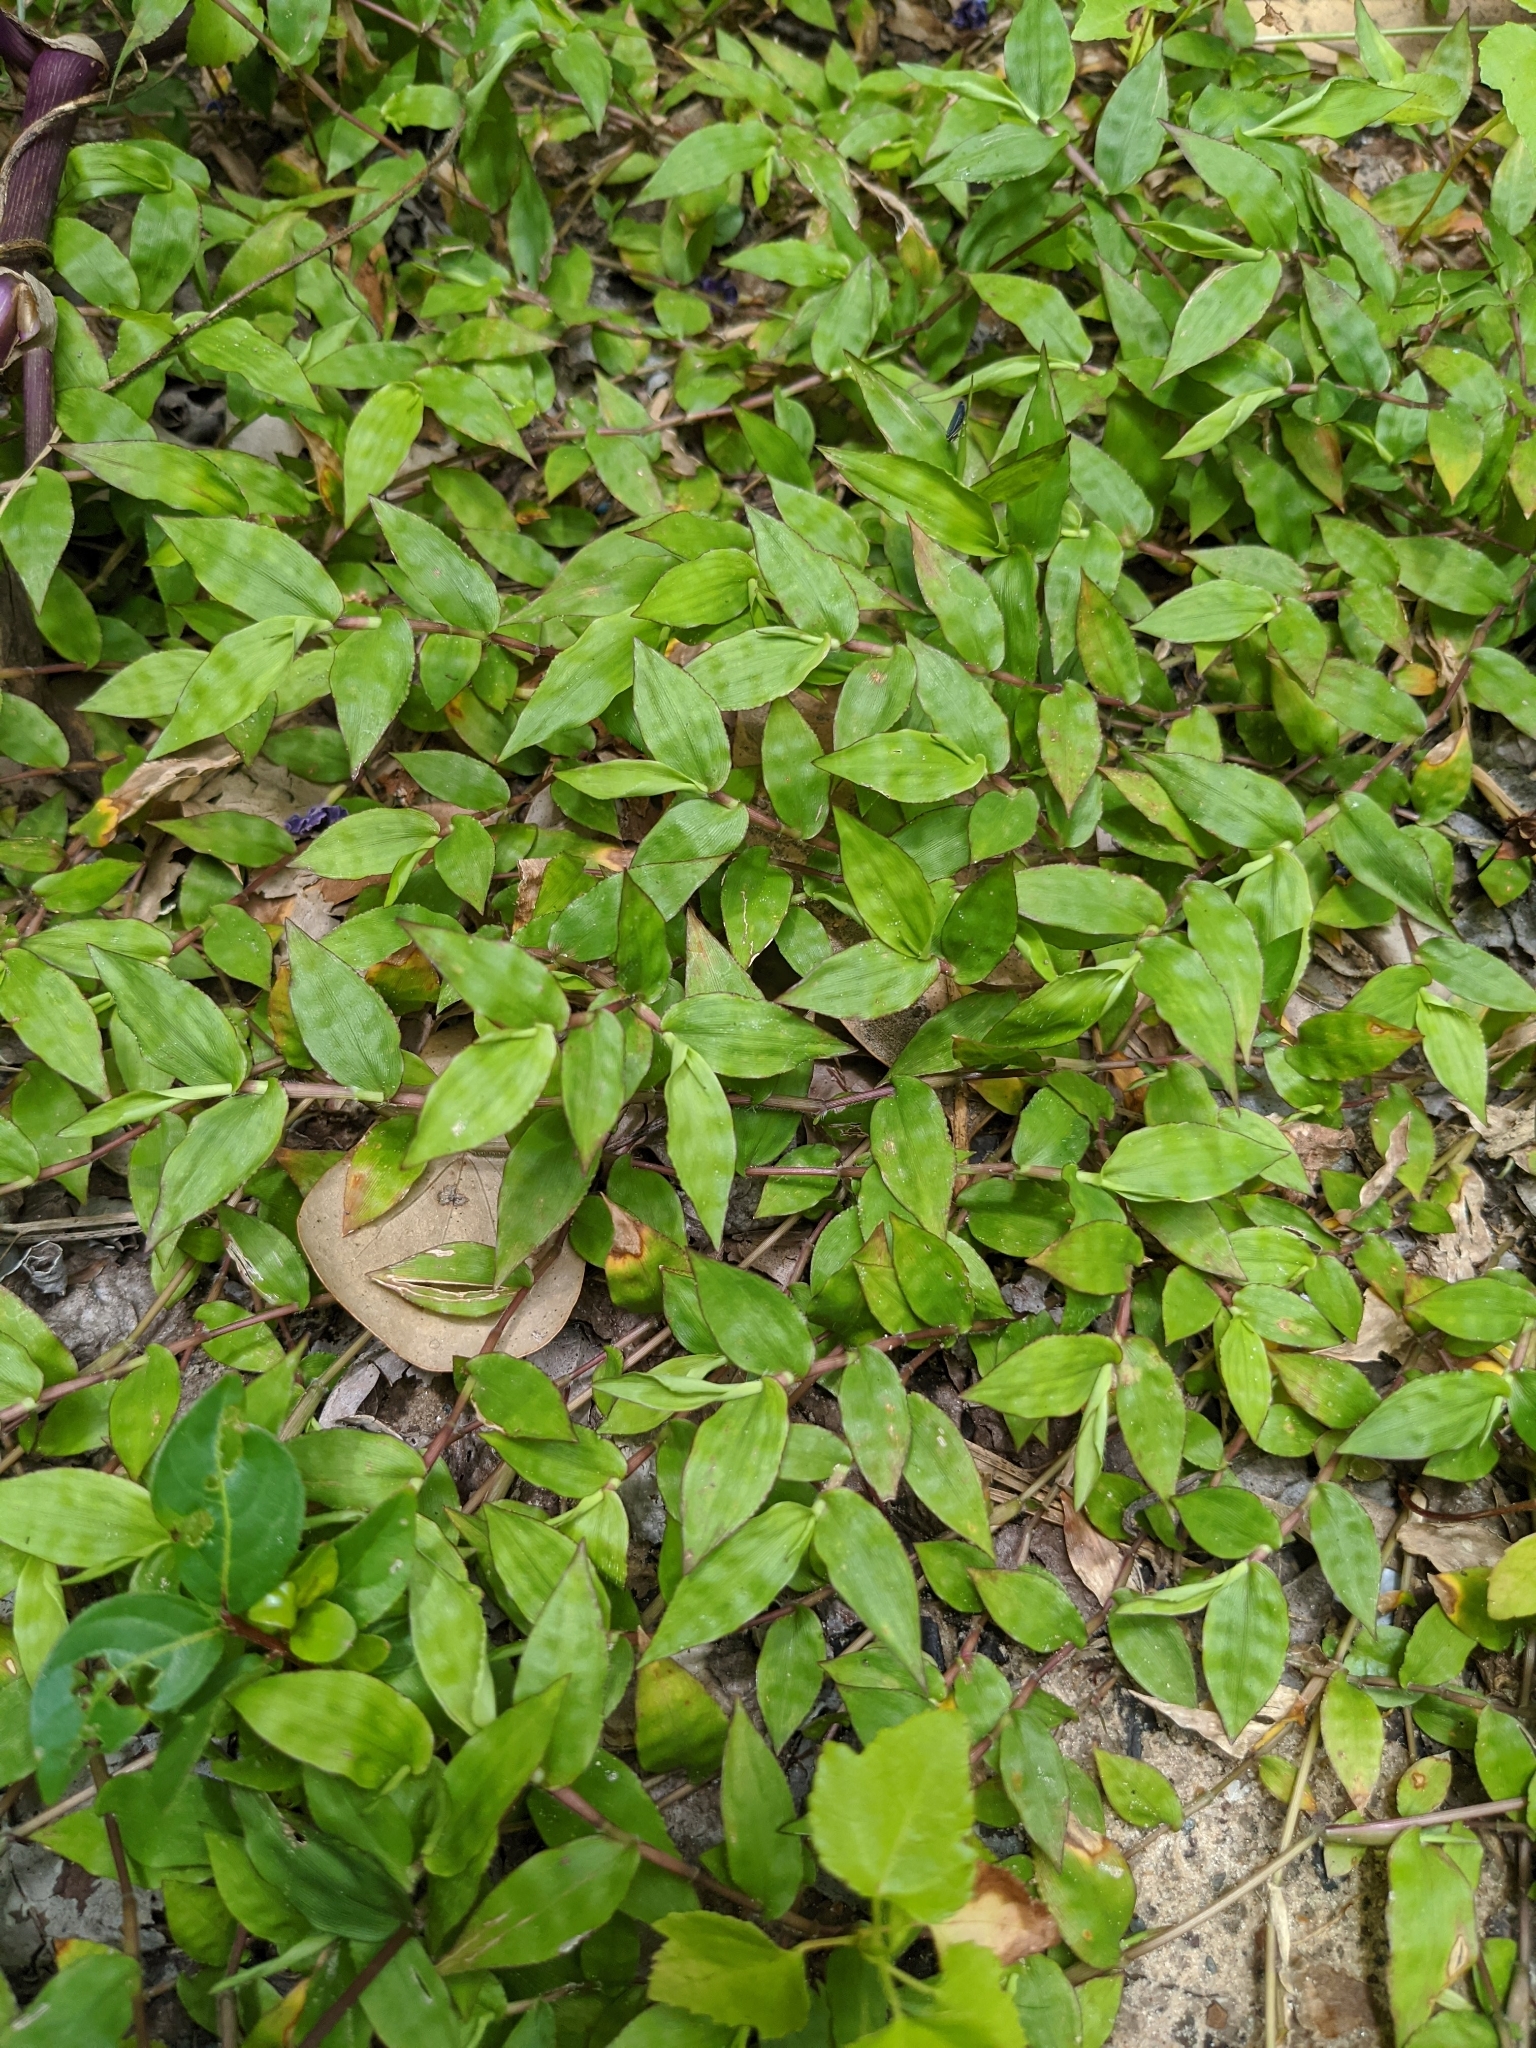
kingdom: Plantae
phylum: Tracheophyta
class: Liliopsida
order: Poales
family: Poaceae
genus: Oplismenus
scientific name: Oplismenus hirtellus
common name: Basketgrass
